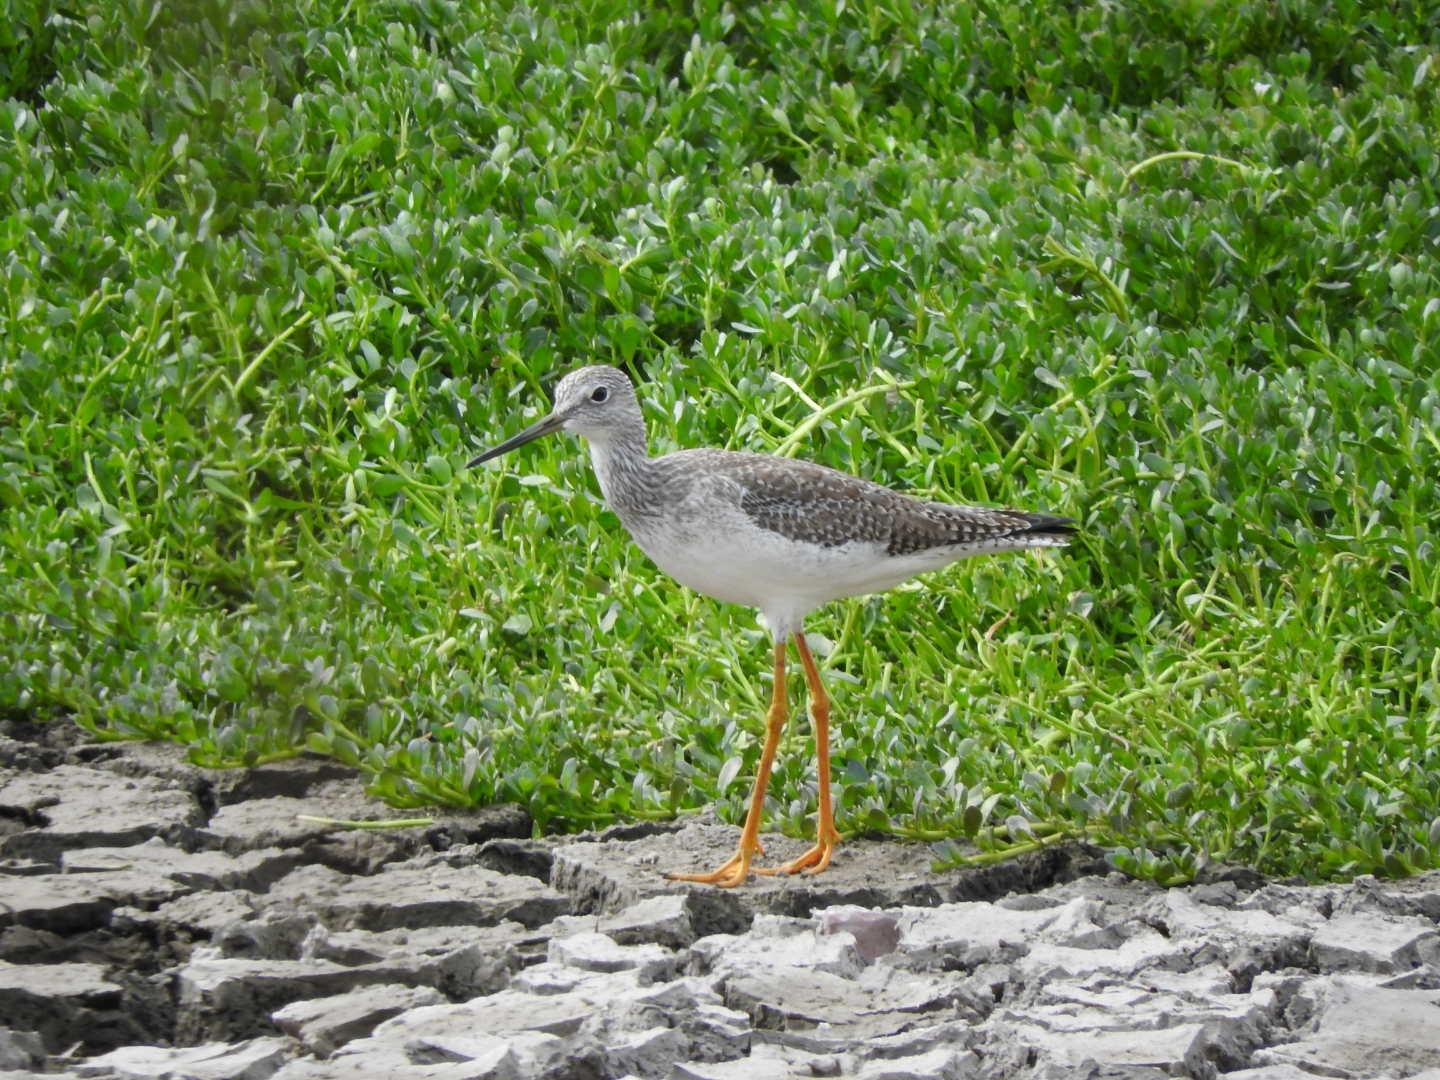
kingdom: Animalia
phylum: Chordata
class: Aves
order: Charadriiformes
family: Scolopacidae
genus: Tringa
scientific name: Tringa melanoleuca
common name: Greater yellowlegs
